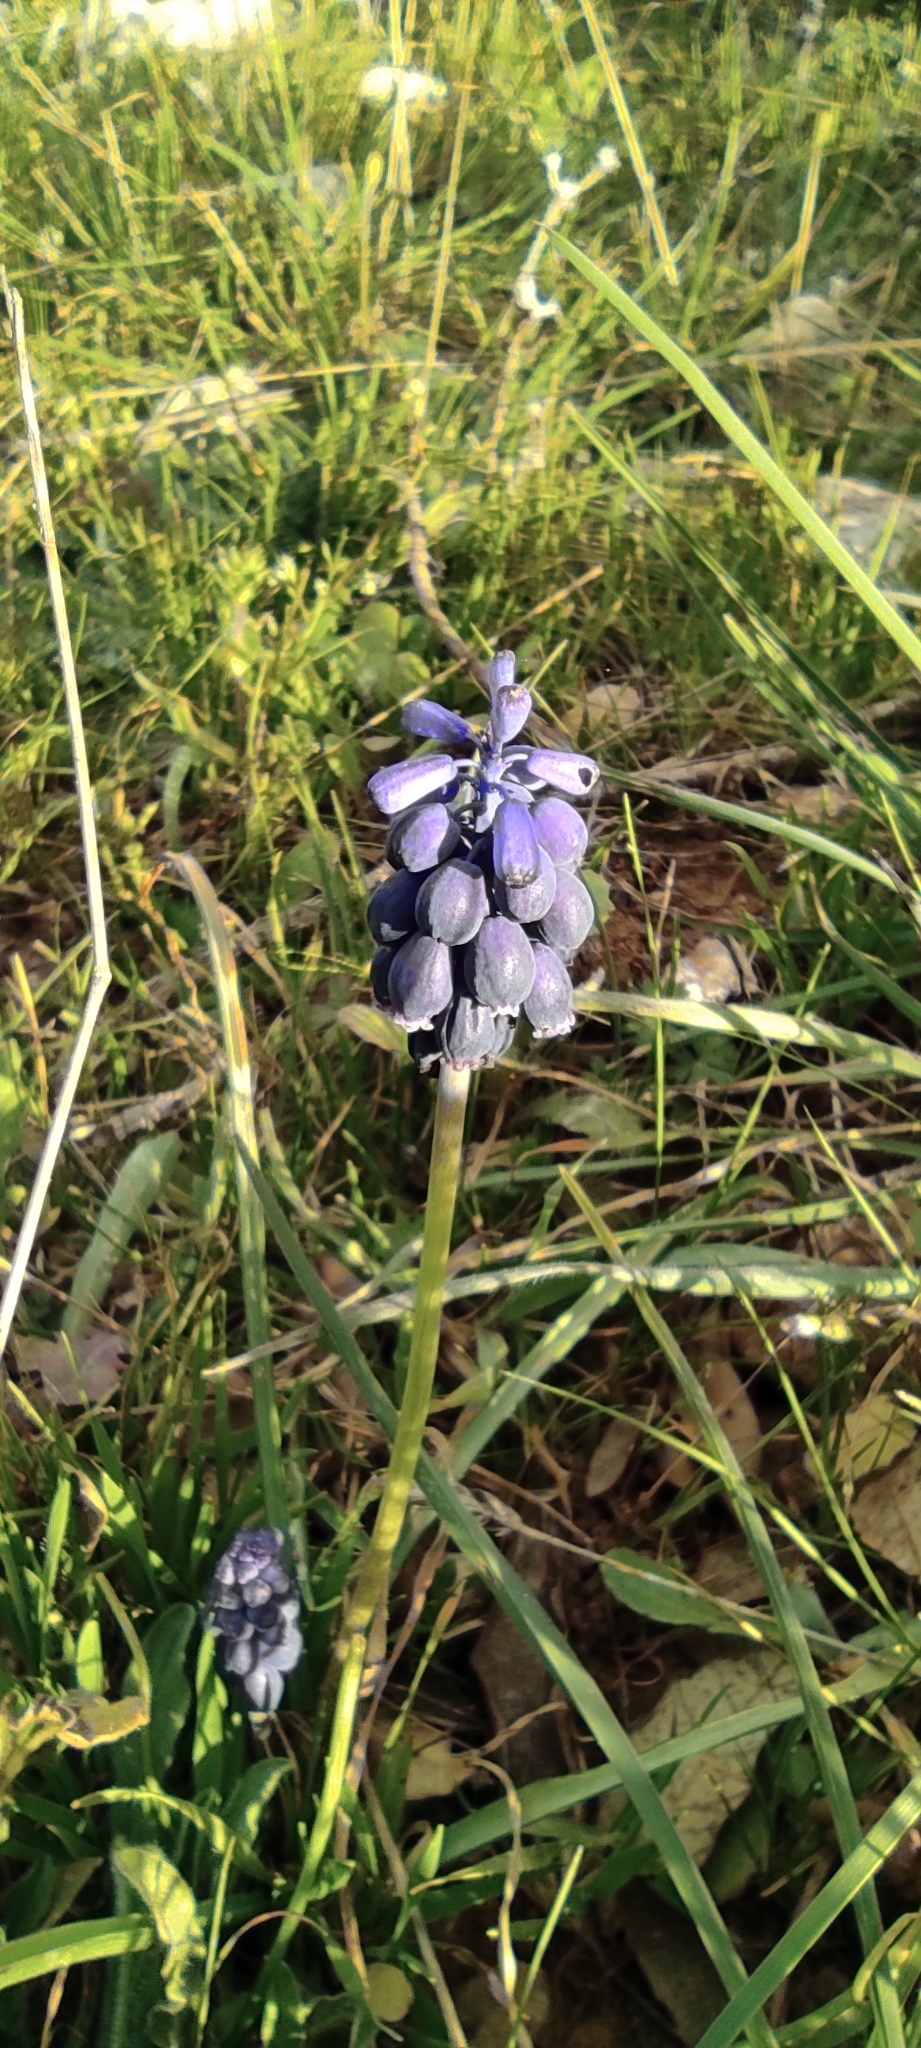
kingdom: Plantae
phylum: Tracheophyta
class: Liliopsida
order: Asparagales
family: Asparagaceae
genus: Muscari
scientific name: Muscari neglectum
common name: Grape-hyacinth
